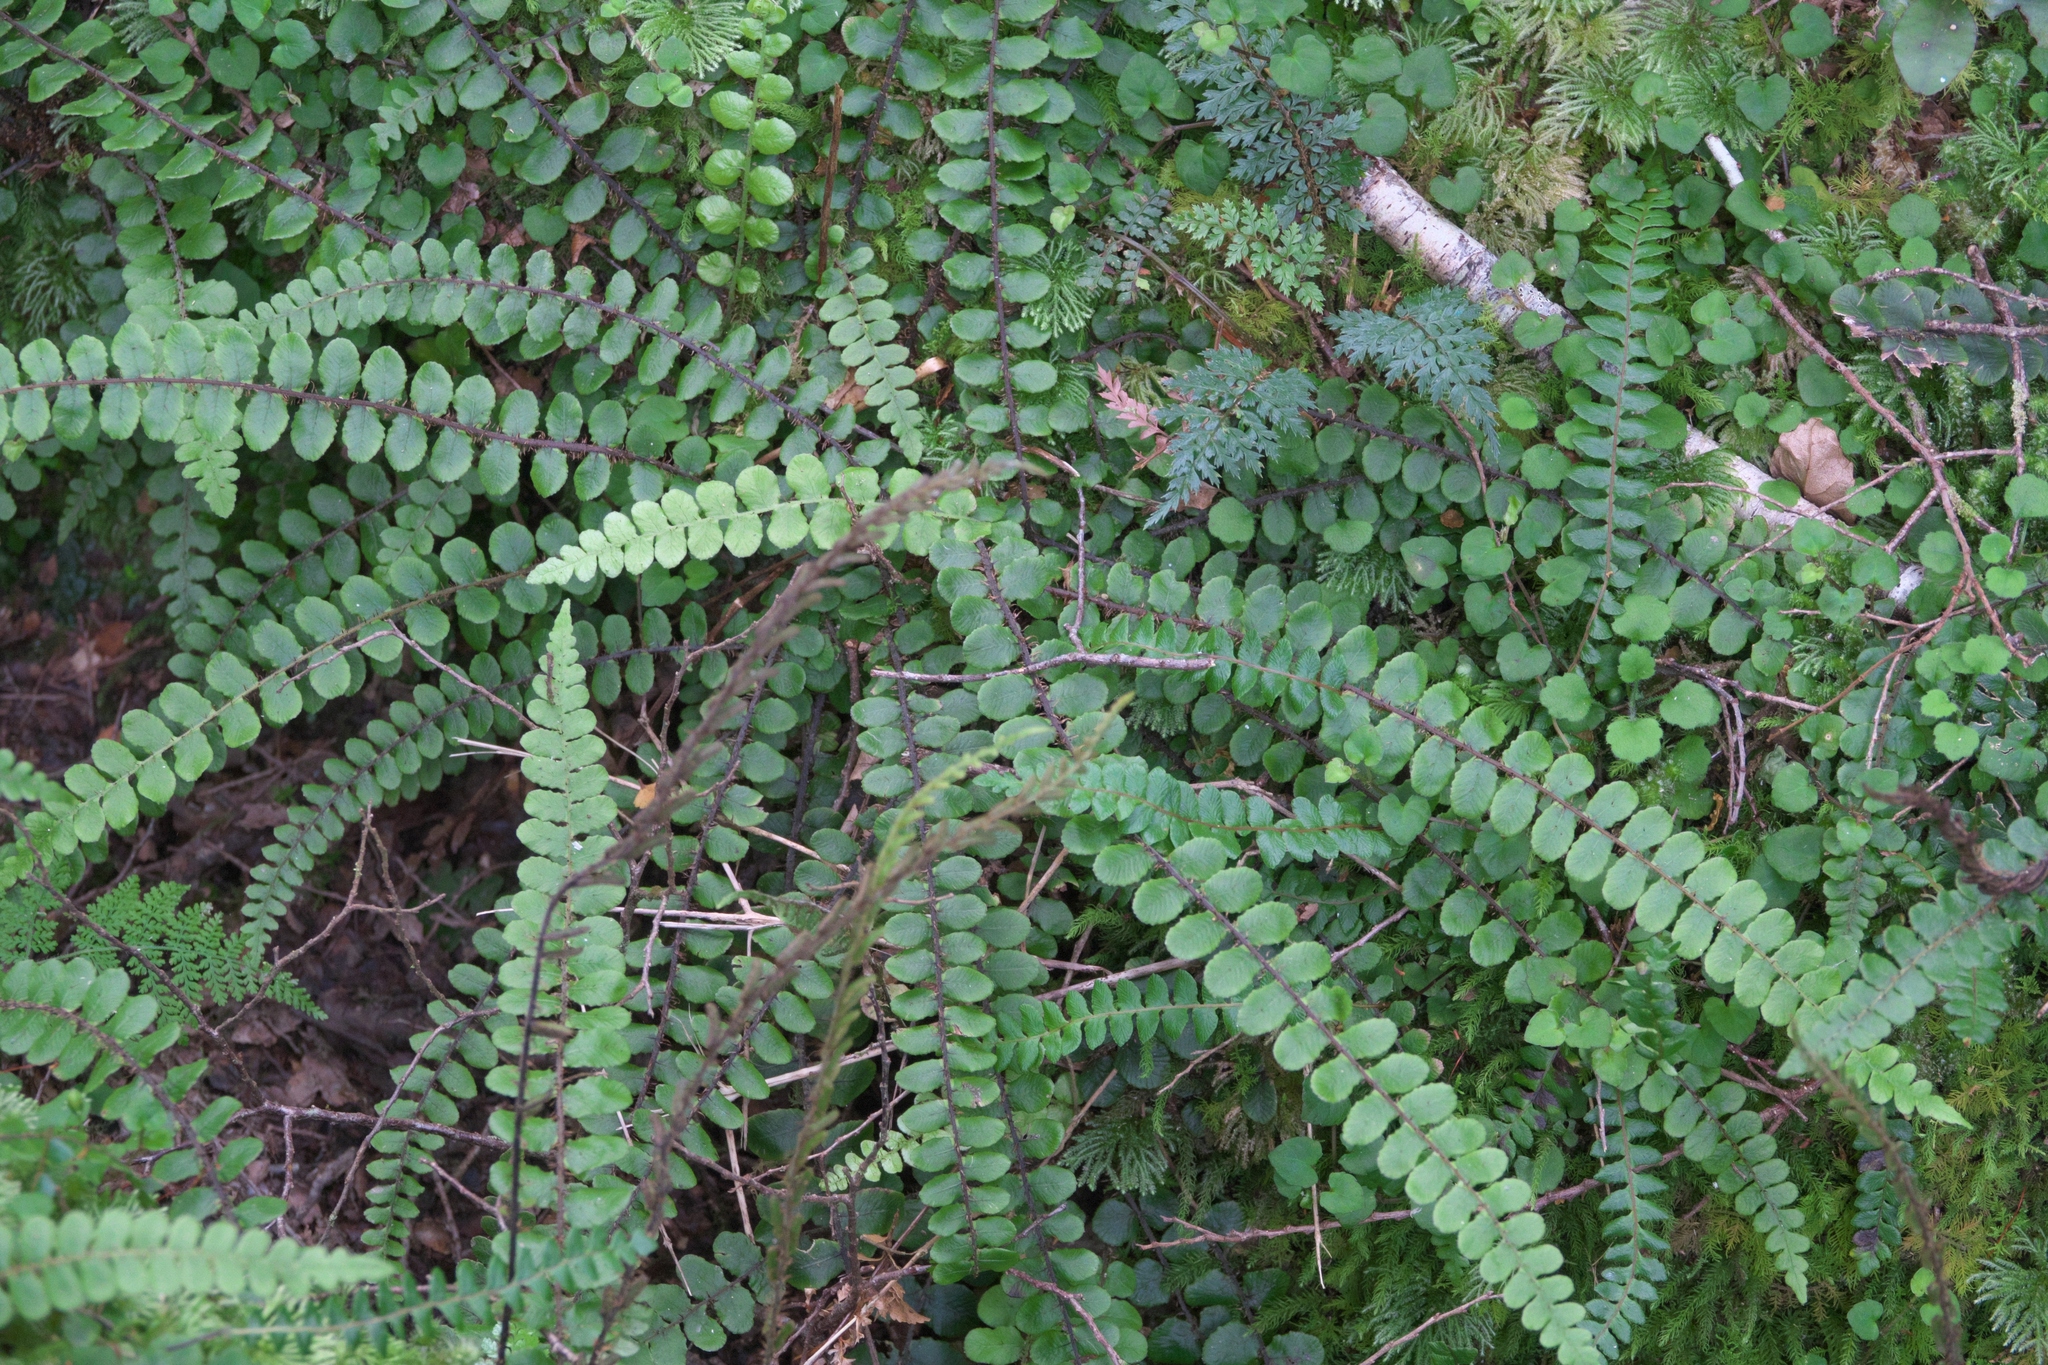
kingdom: Plantae
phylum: Tracheophyta
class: Polypodiopsida
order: Polypodiales
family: Blechnaceae
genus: Cranfillia
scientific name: Cranfillia fluviatilis
